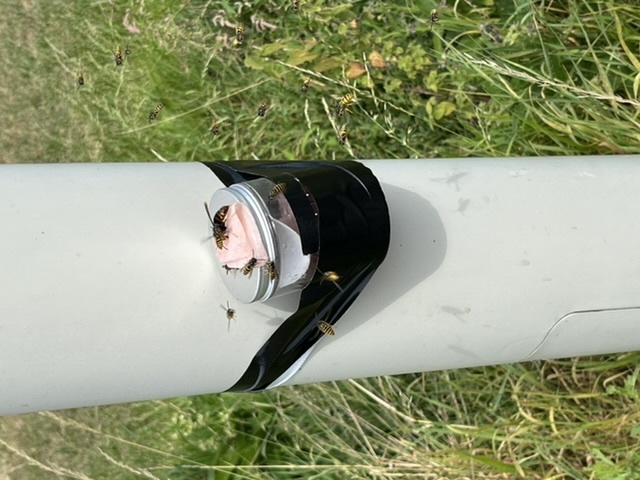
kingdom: Animalia
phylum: Arthropoda
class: Insecta
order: Hymenoptera
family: Vespidae
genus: Vespa
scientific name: Vespa velutina
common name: Asian hornet
